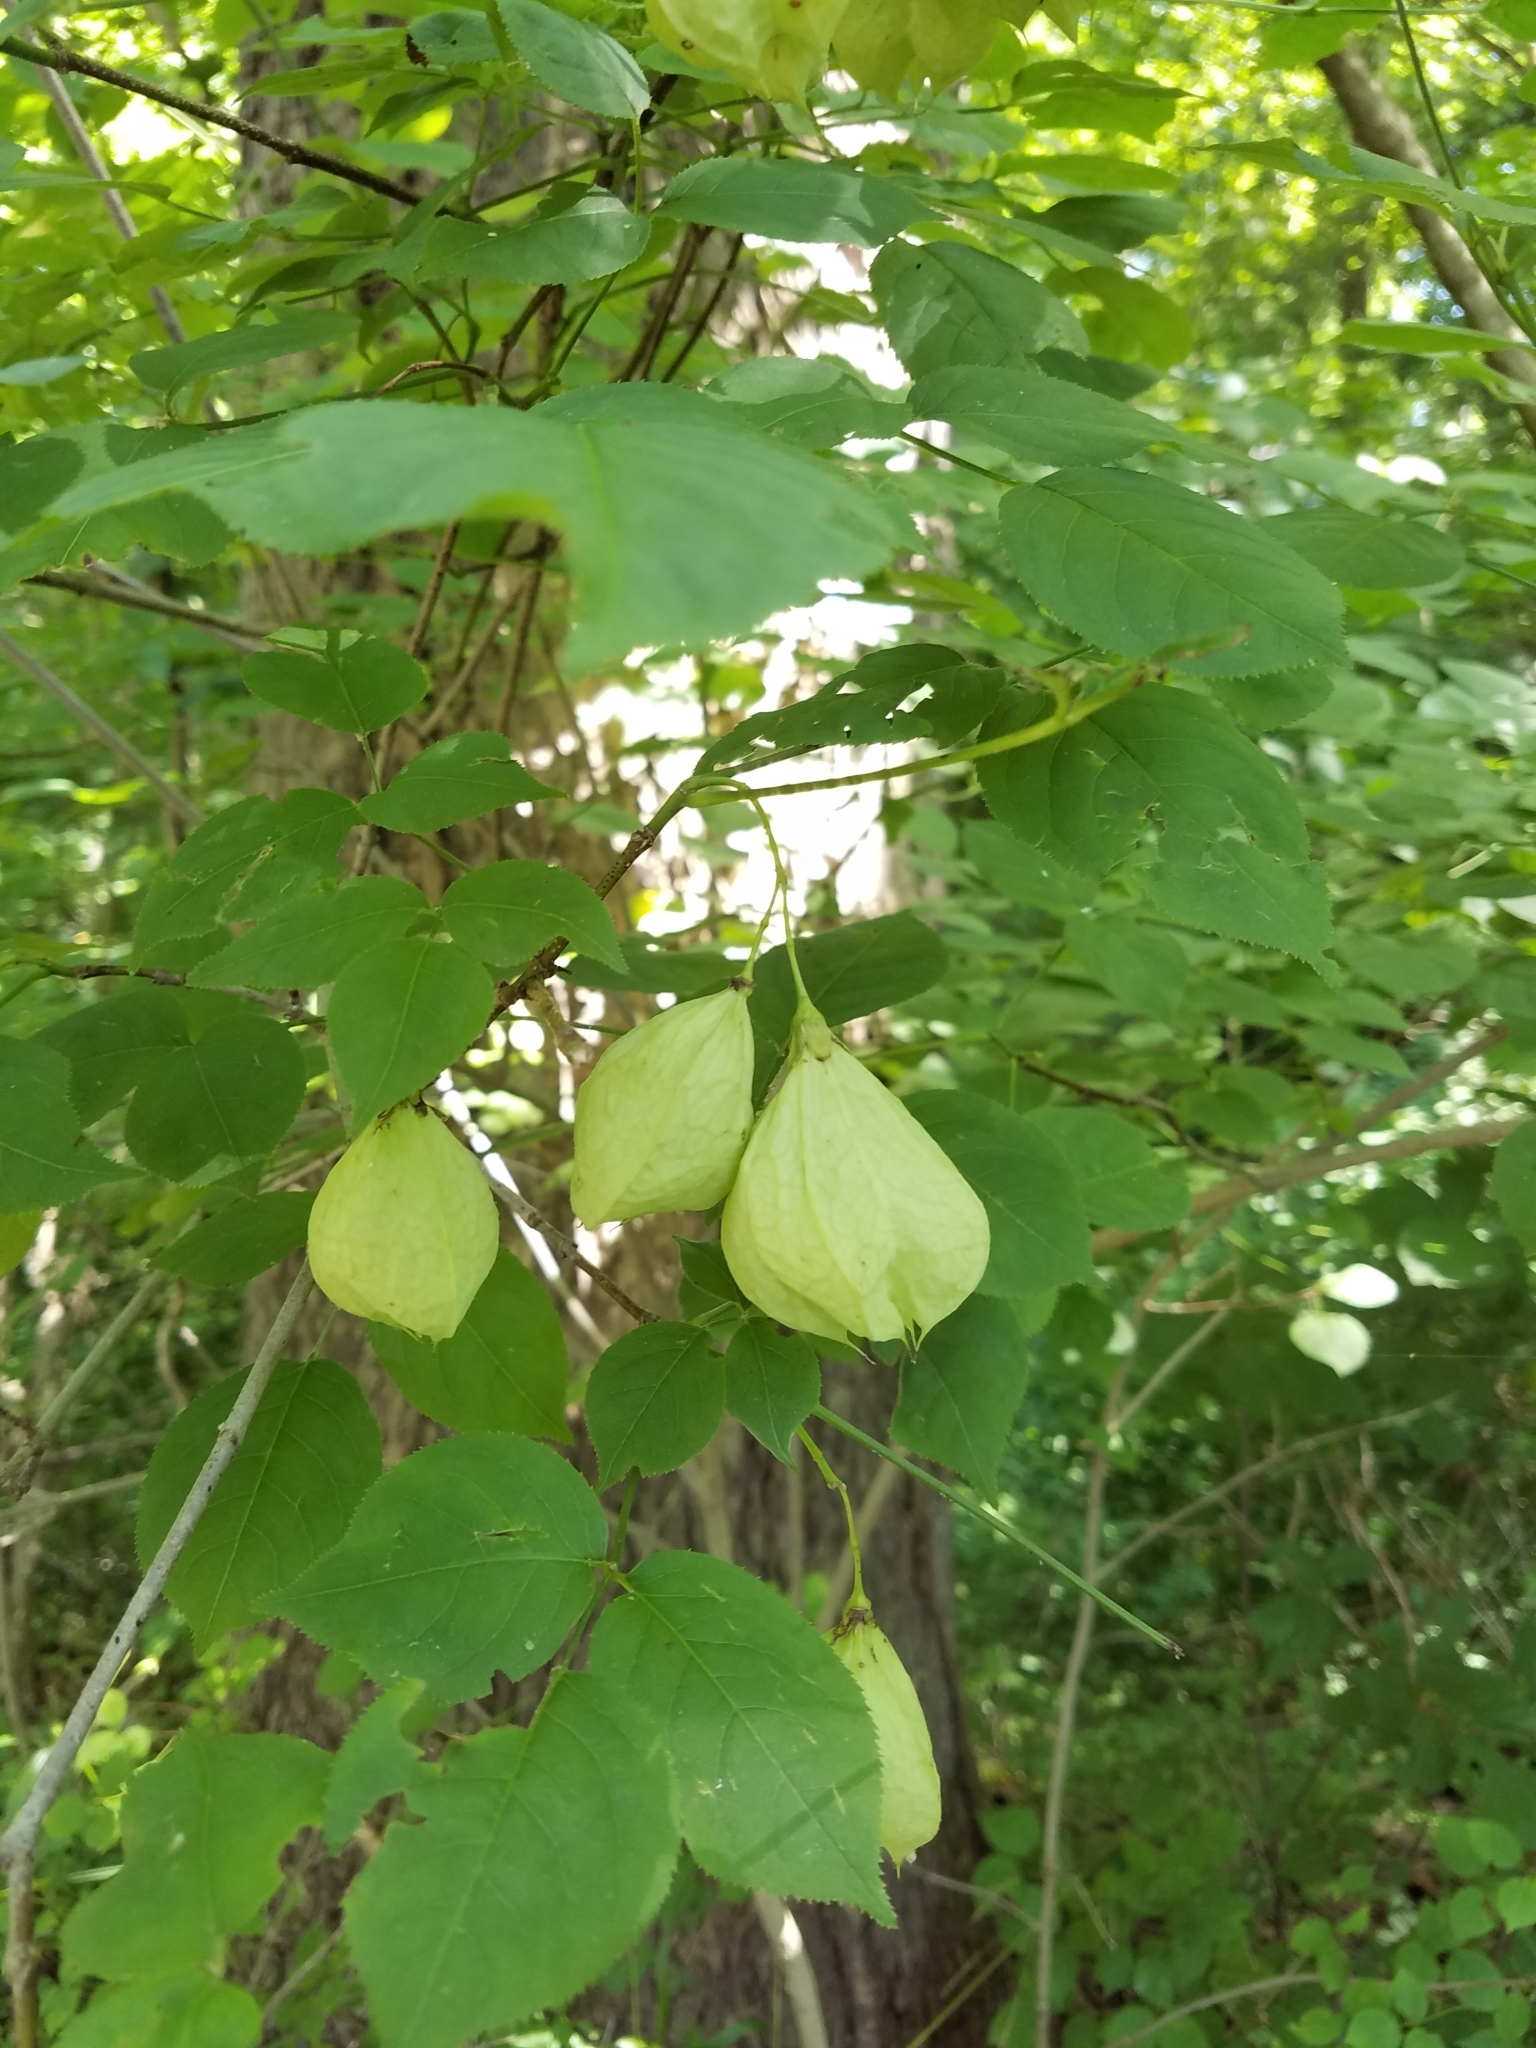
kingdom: Plantae
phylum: Tracheophyta
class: Magnoliopsida
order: Crossosomatales
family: Staphyleaceae
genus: Staphylea
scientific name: Staphylea trifolia
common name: American bladdernut
